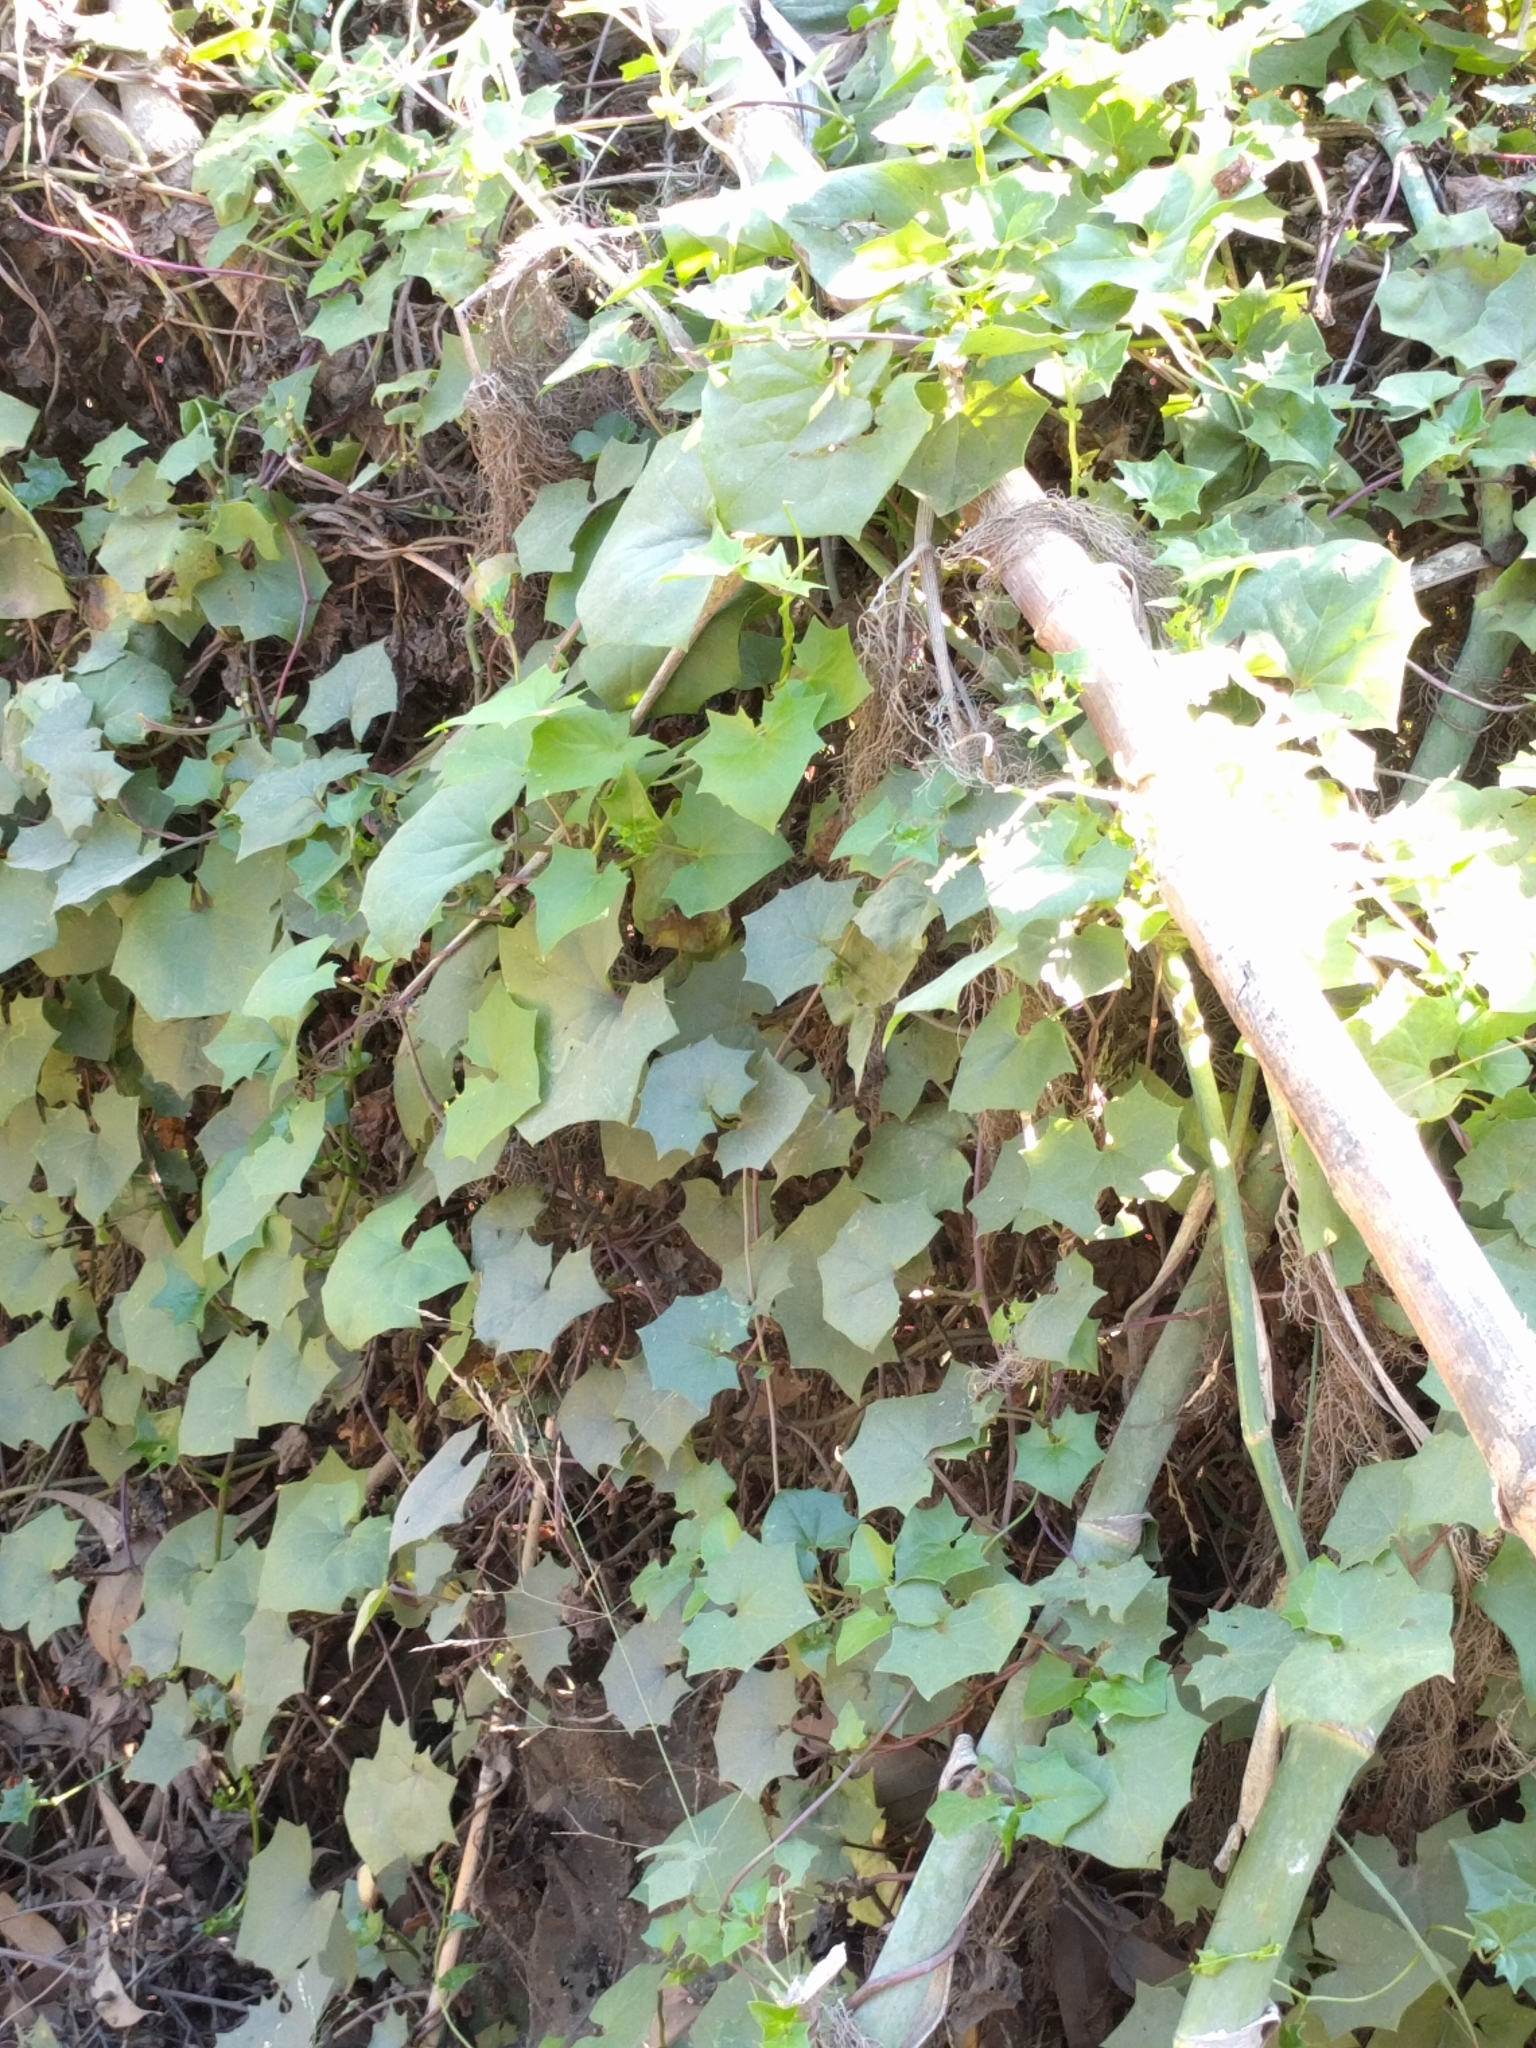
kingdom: Plantae
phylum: Tracheophyta
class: Magnoliopsida
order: Asterales
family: Asteraceae
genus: Delairea
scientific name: Delairea odorata
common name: Cape-ivy
